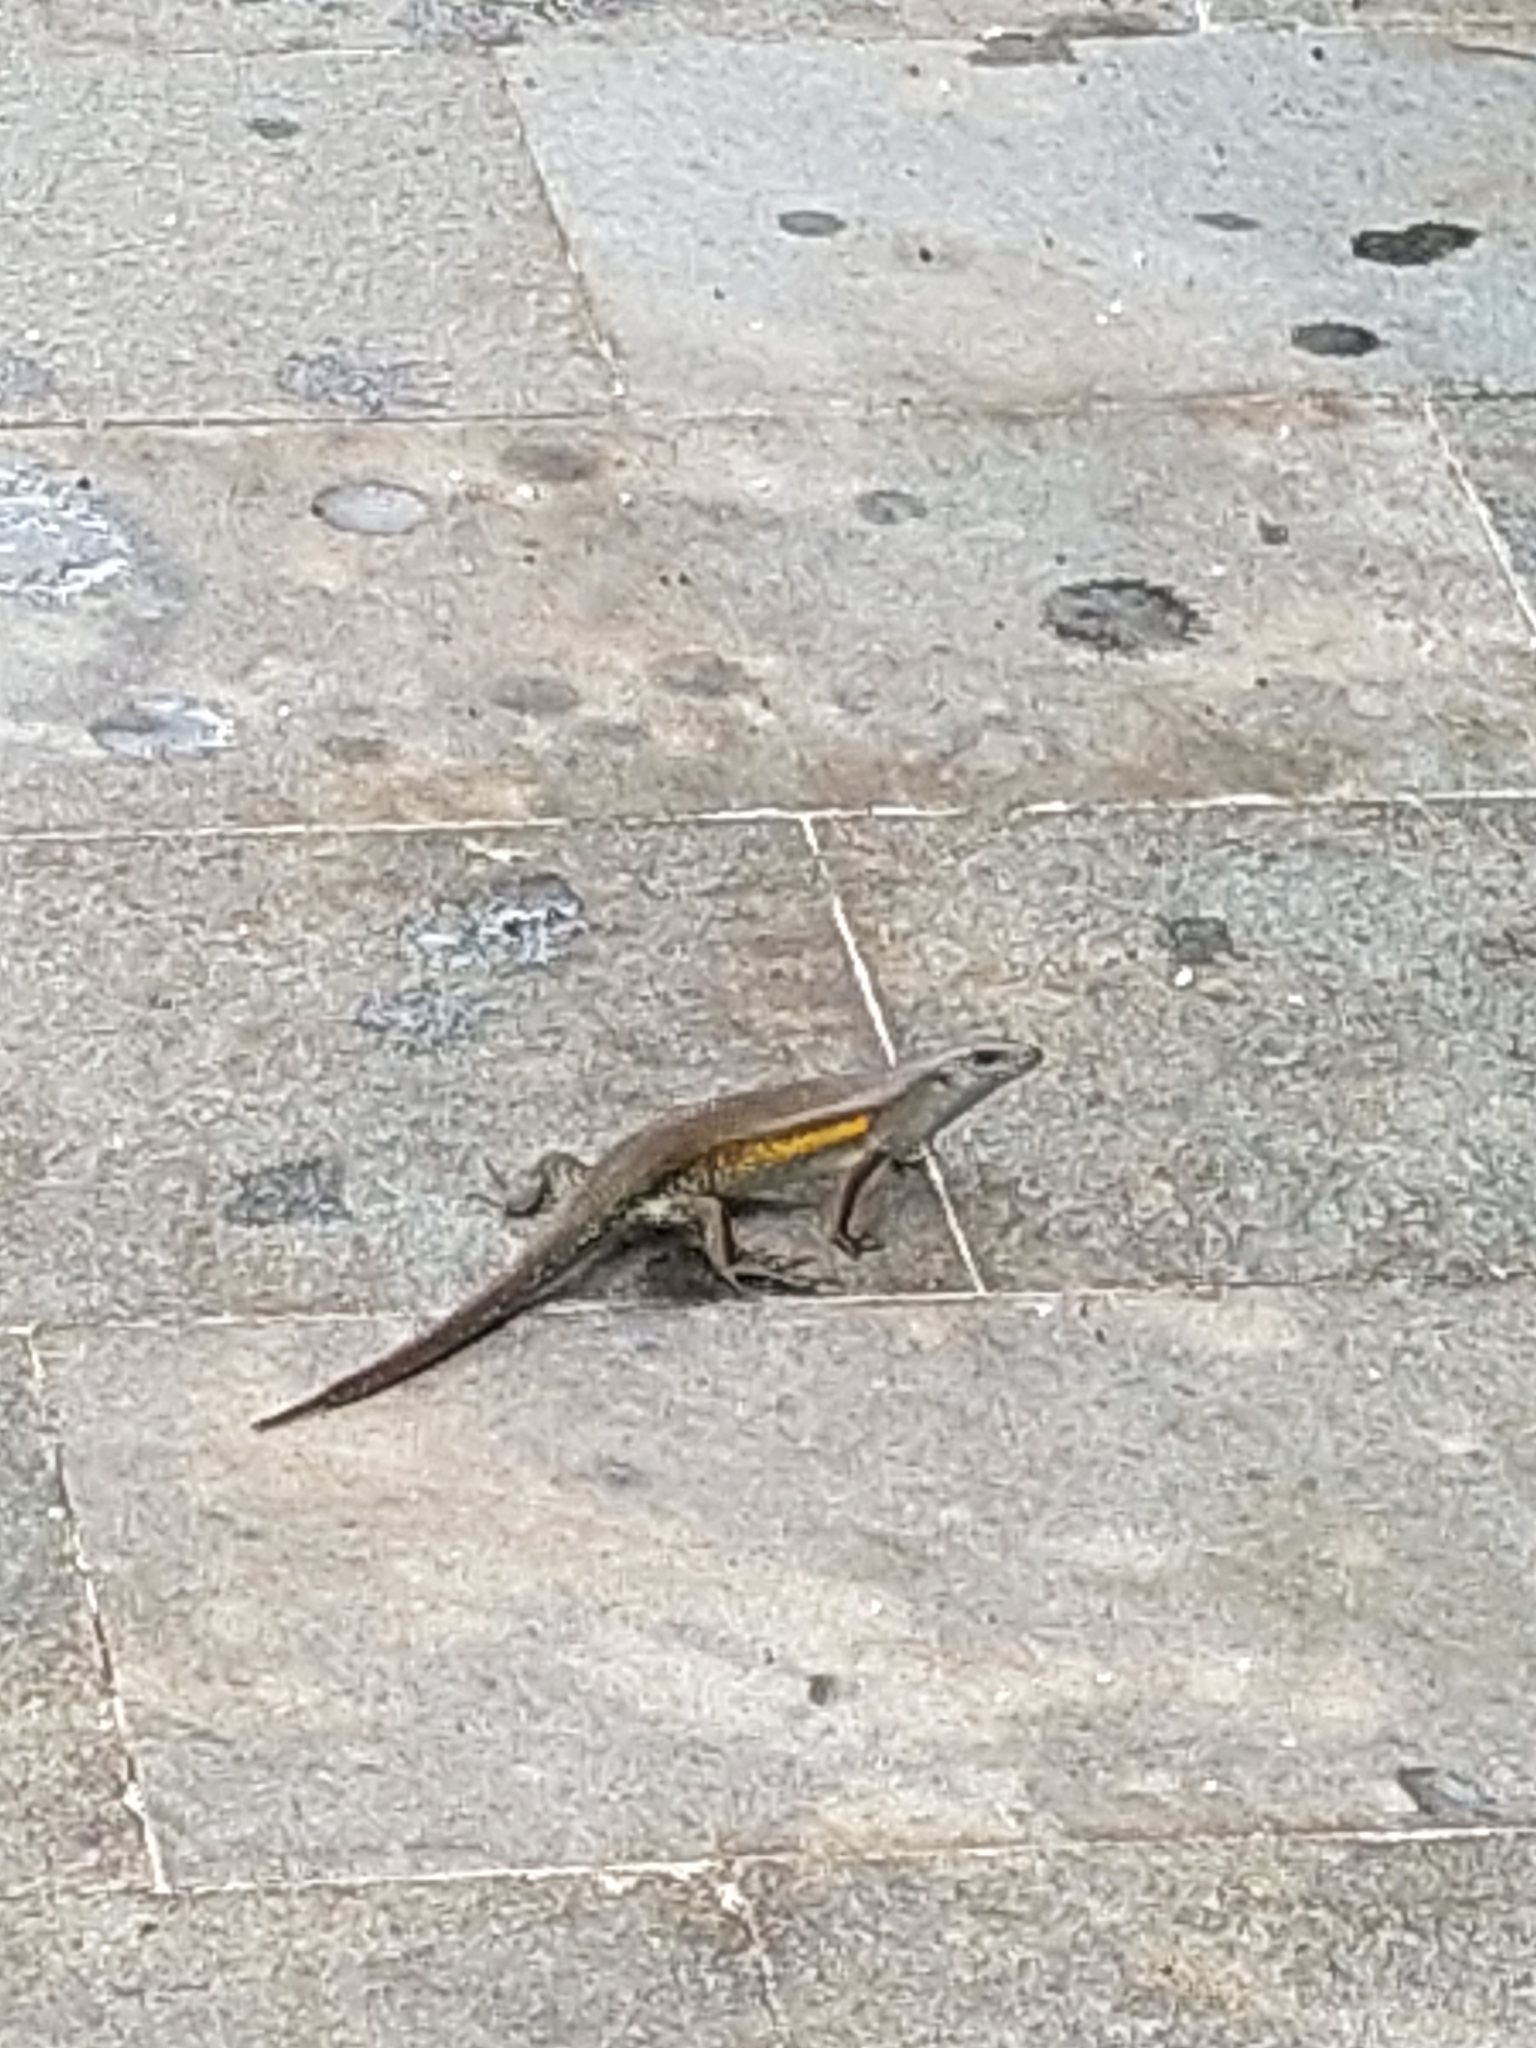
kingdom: Animalia
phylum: Chordata
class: Squamata
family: Scincidae
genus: Eutropis
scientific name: Eutropis multifasciata
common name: Common mabuya
